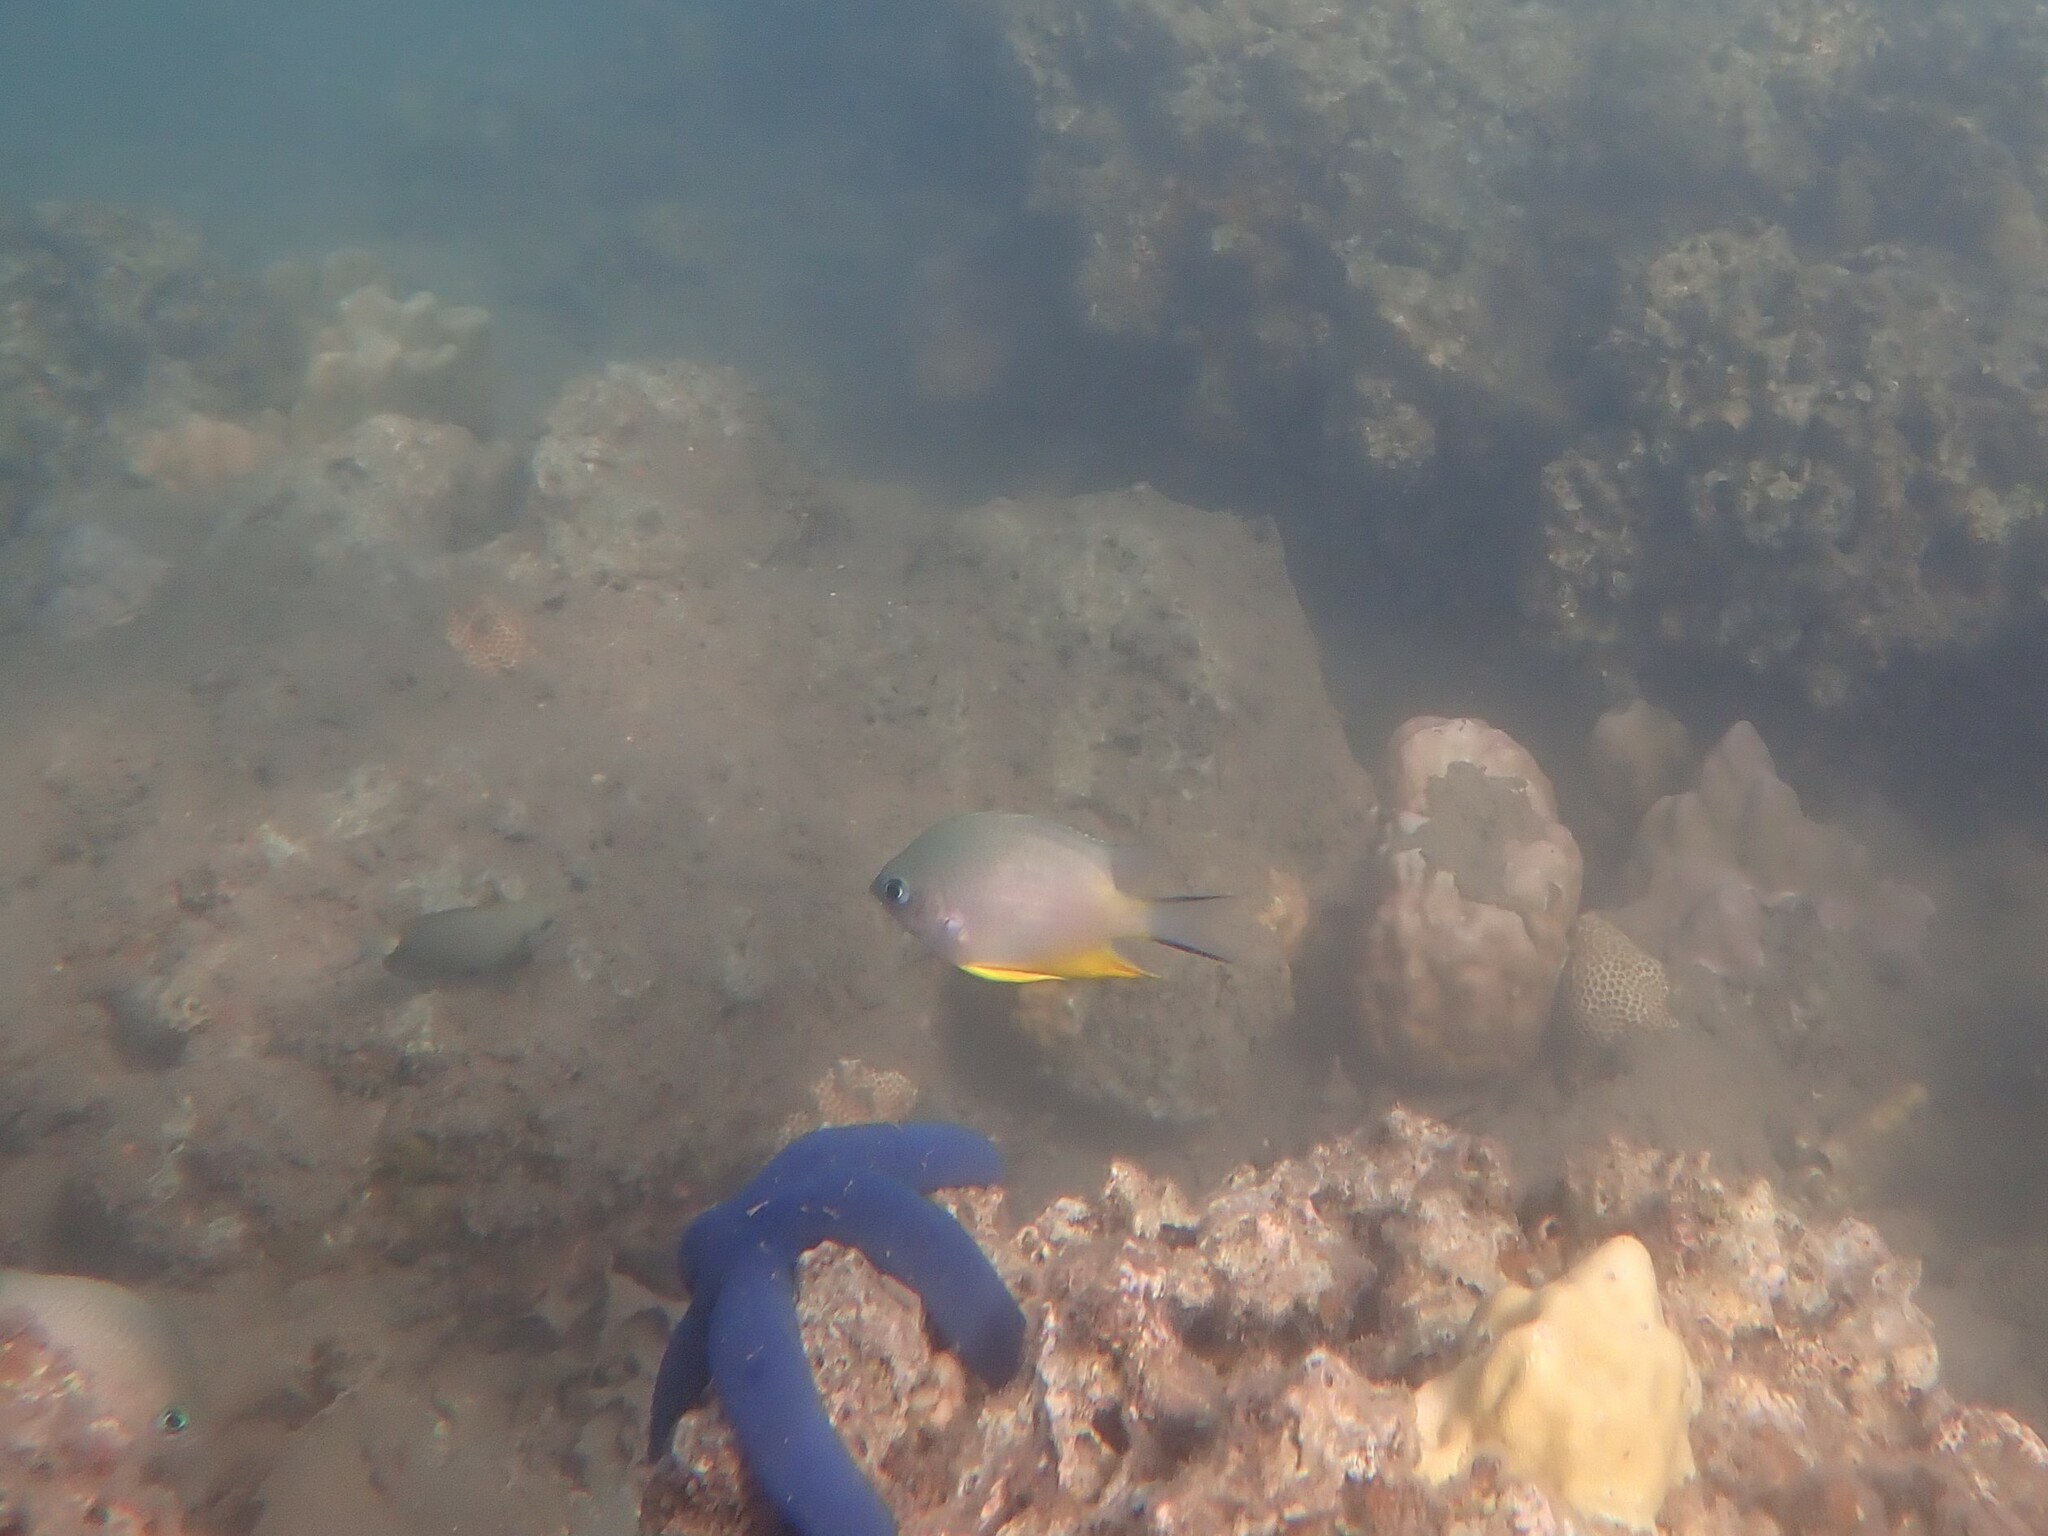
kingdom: Animalia
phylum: Chordata
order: Perciformes
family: Pomacentridae
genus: Amblyglyphidodon
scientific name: Amblyglyphidodon orbicularis
